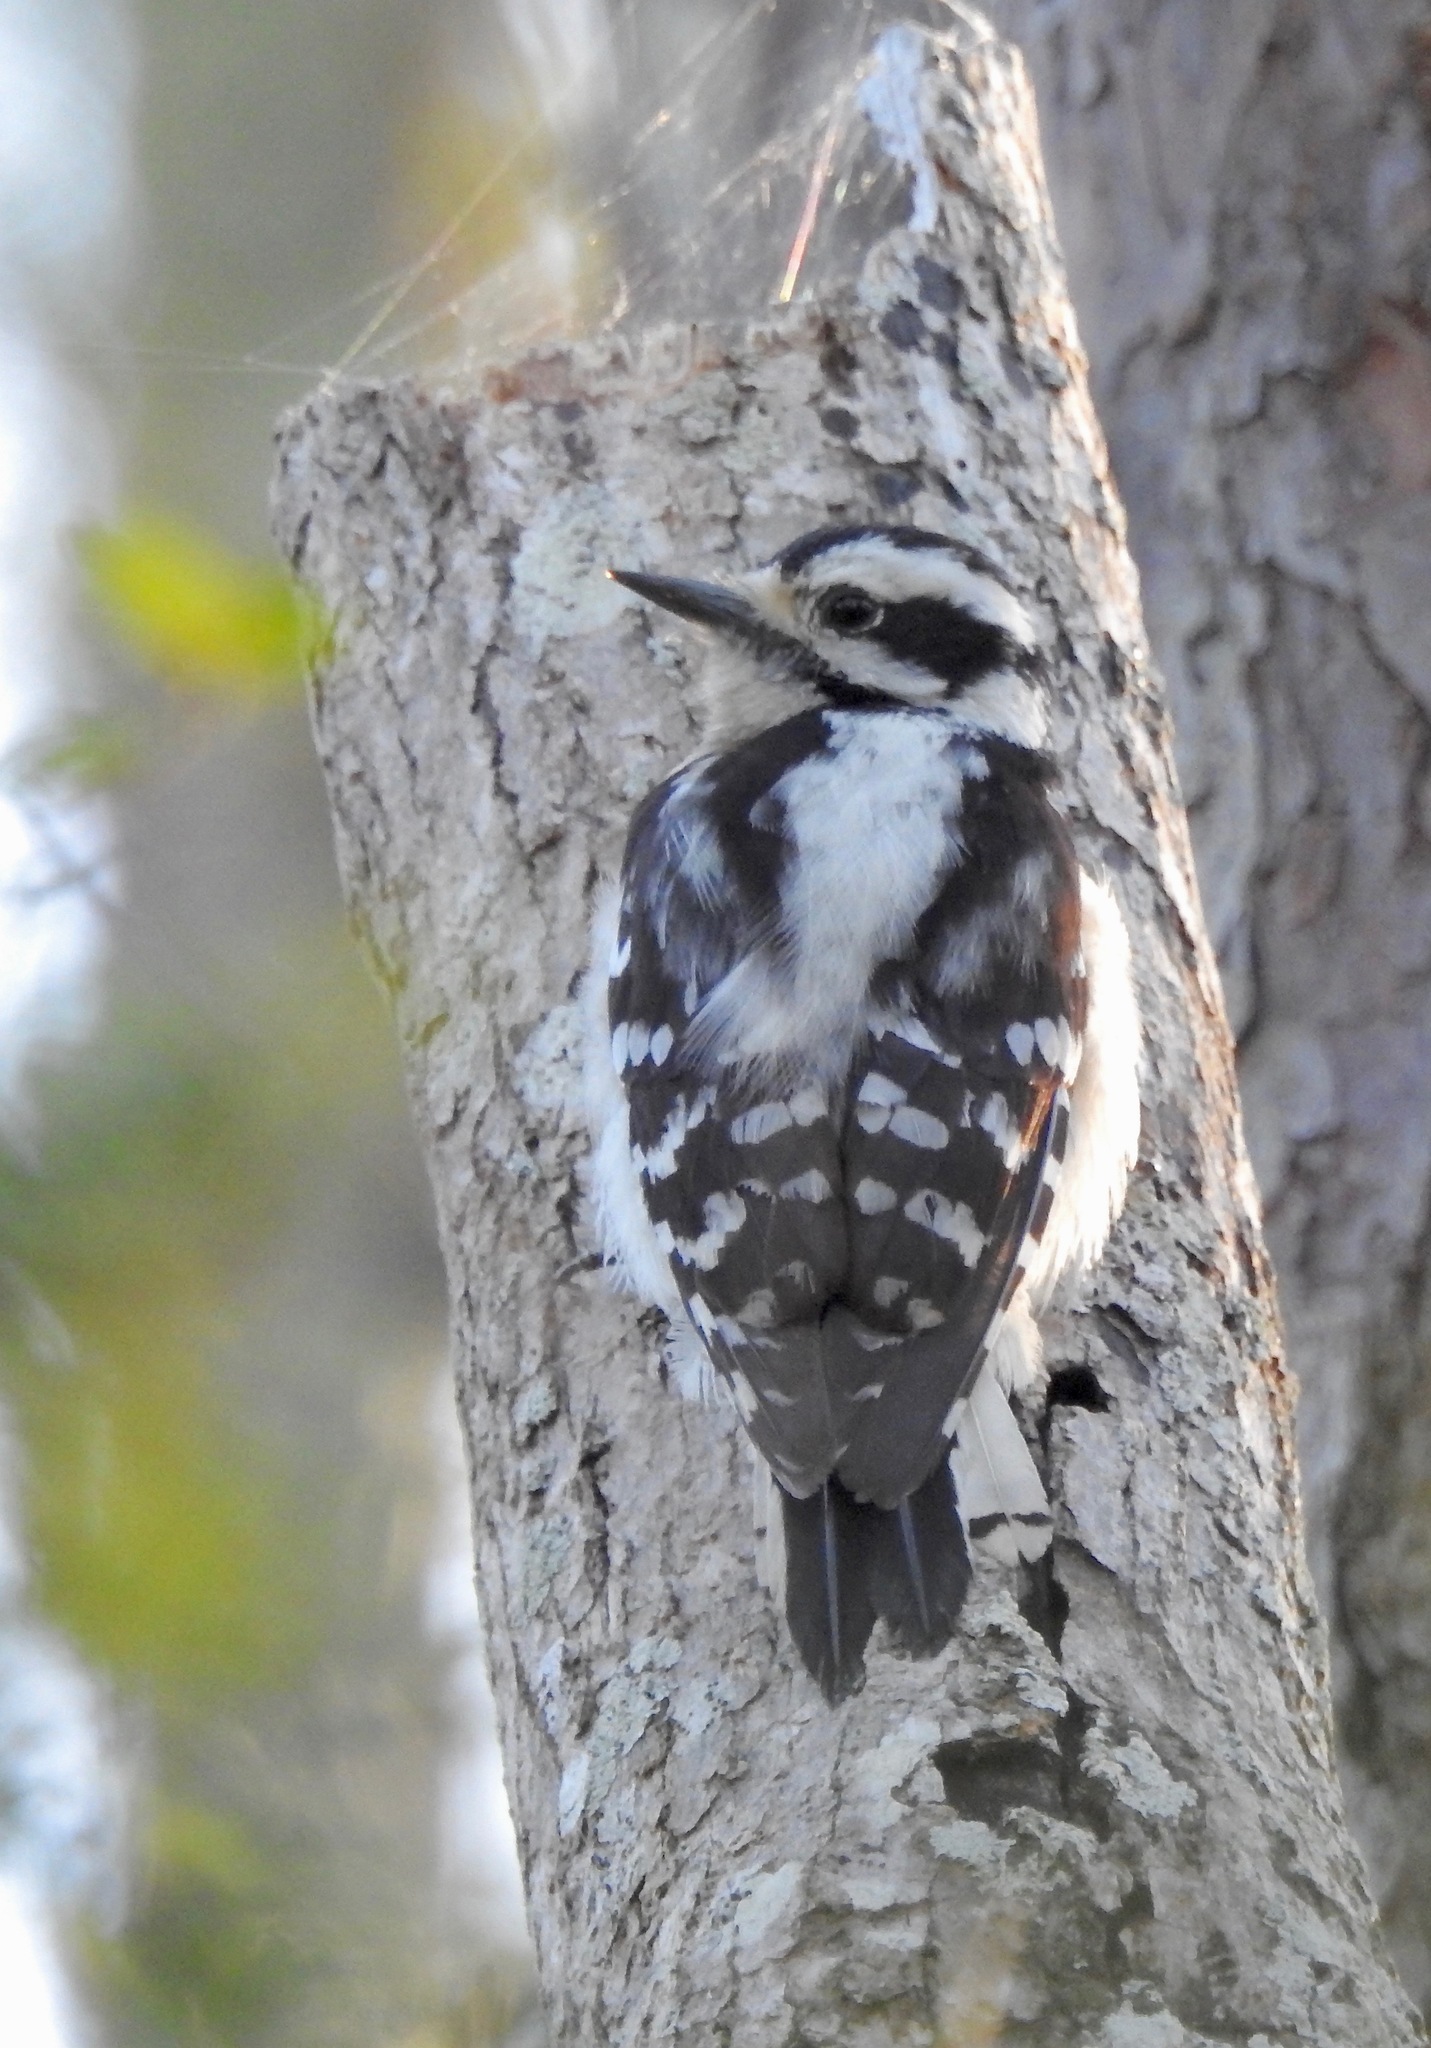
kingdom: Animalia
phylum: Chordata
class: Aves
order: Piciformes
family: Picidae
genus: Dryobates
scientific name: Dryobates pubescens
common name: Downy woodpecker
